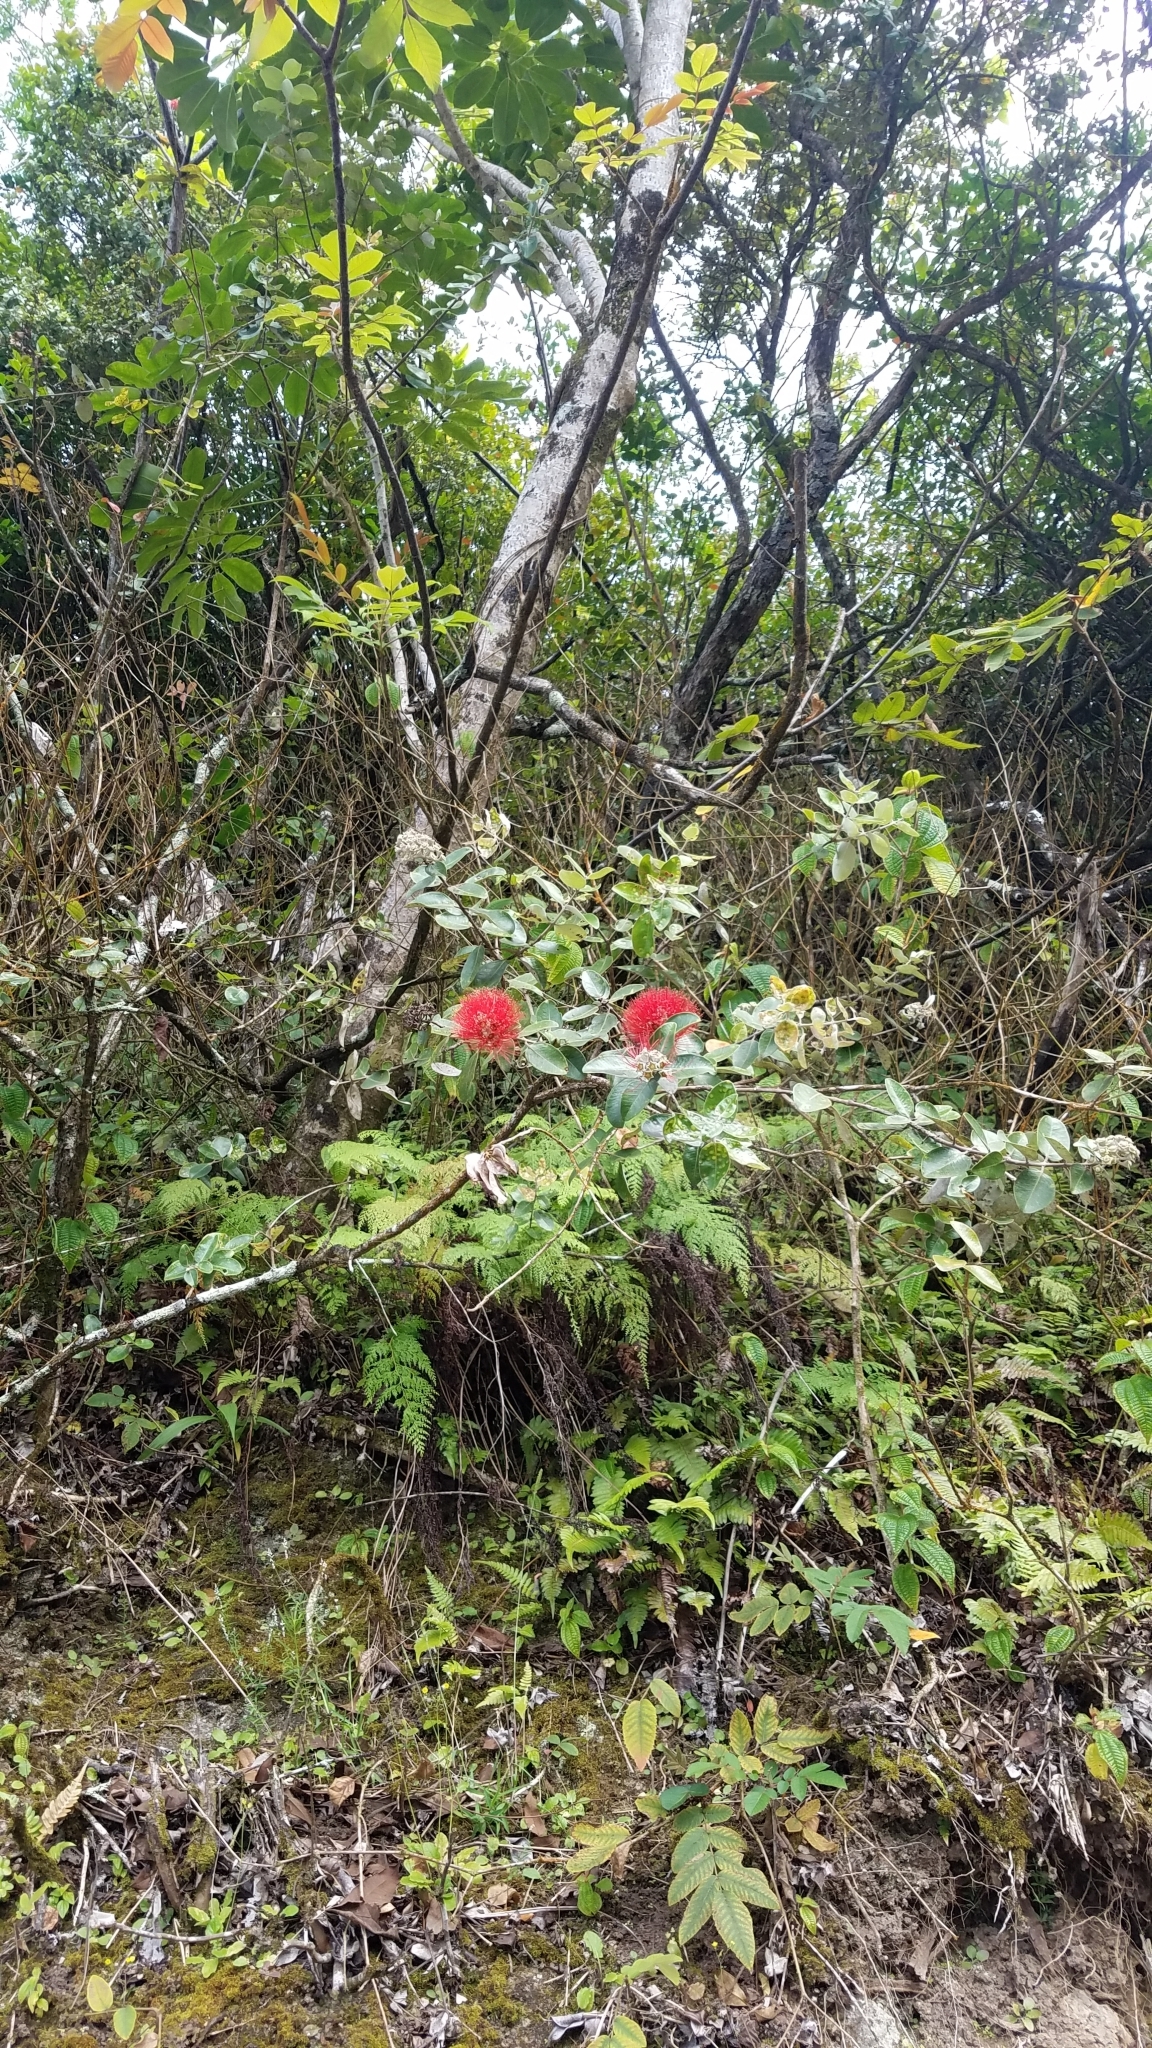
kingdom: Plantae
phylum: Tracheophyta
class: Magnoliopsida
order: Myrtales
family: Myrtaceae
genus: Metrosideros
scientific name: Metrosideros polymorpha
